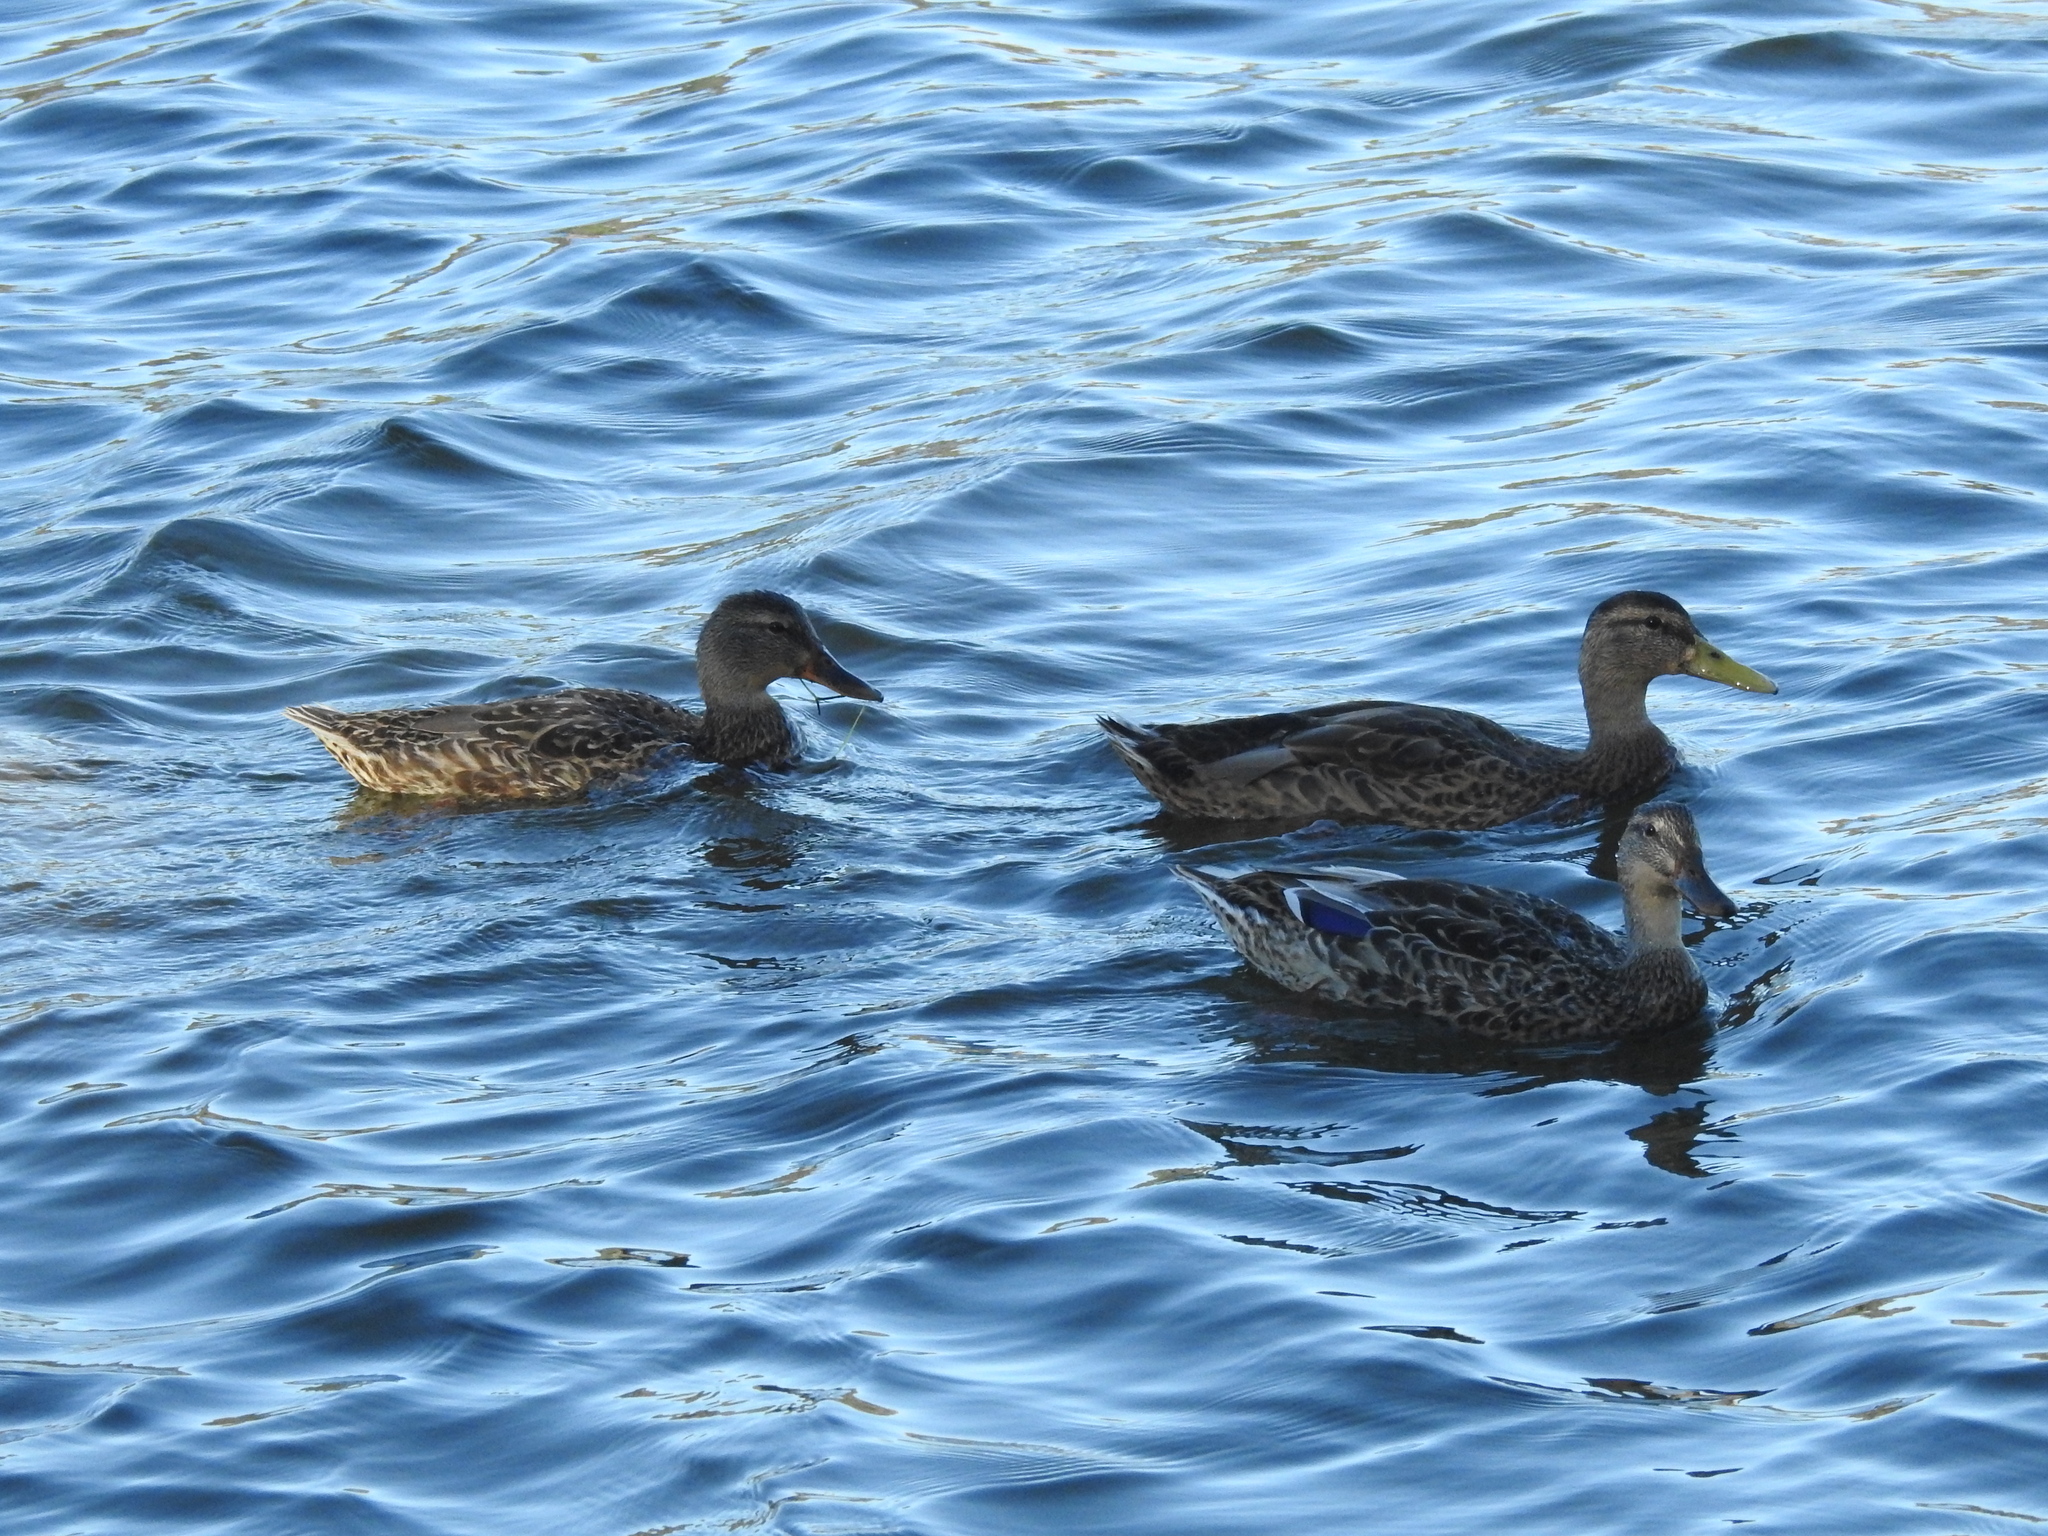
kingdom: Animalia
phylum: Chordata
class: Aves
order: Anseriformes
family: Anatidae
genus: Anas
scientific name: Anas platyrhynchos
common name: Mallard
